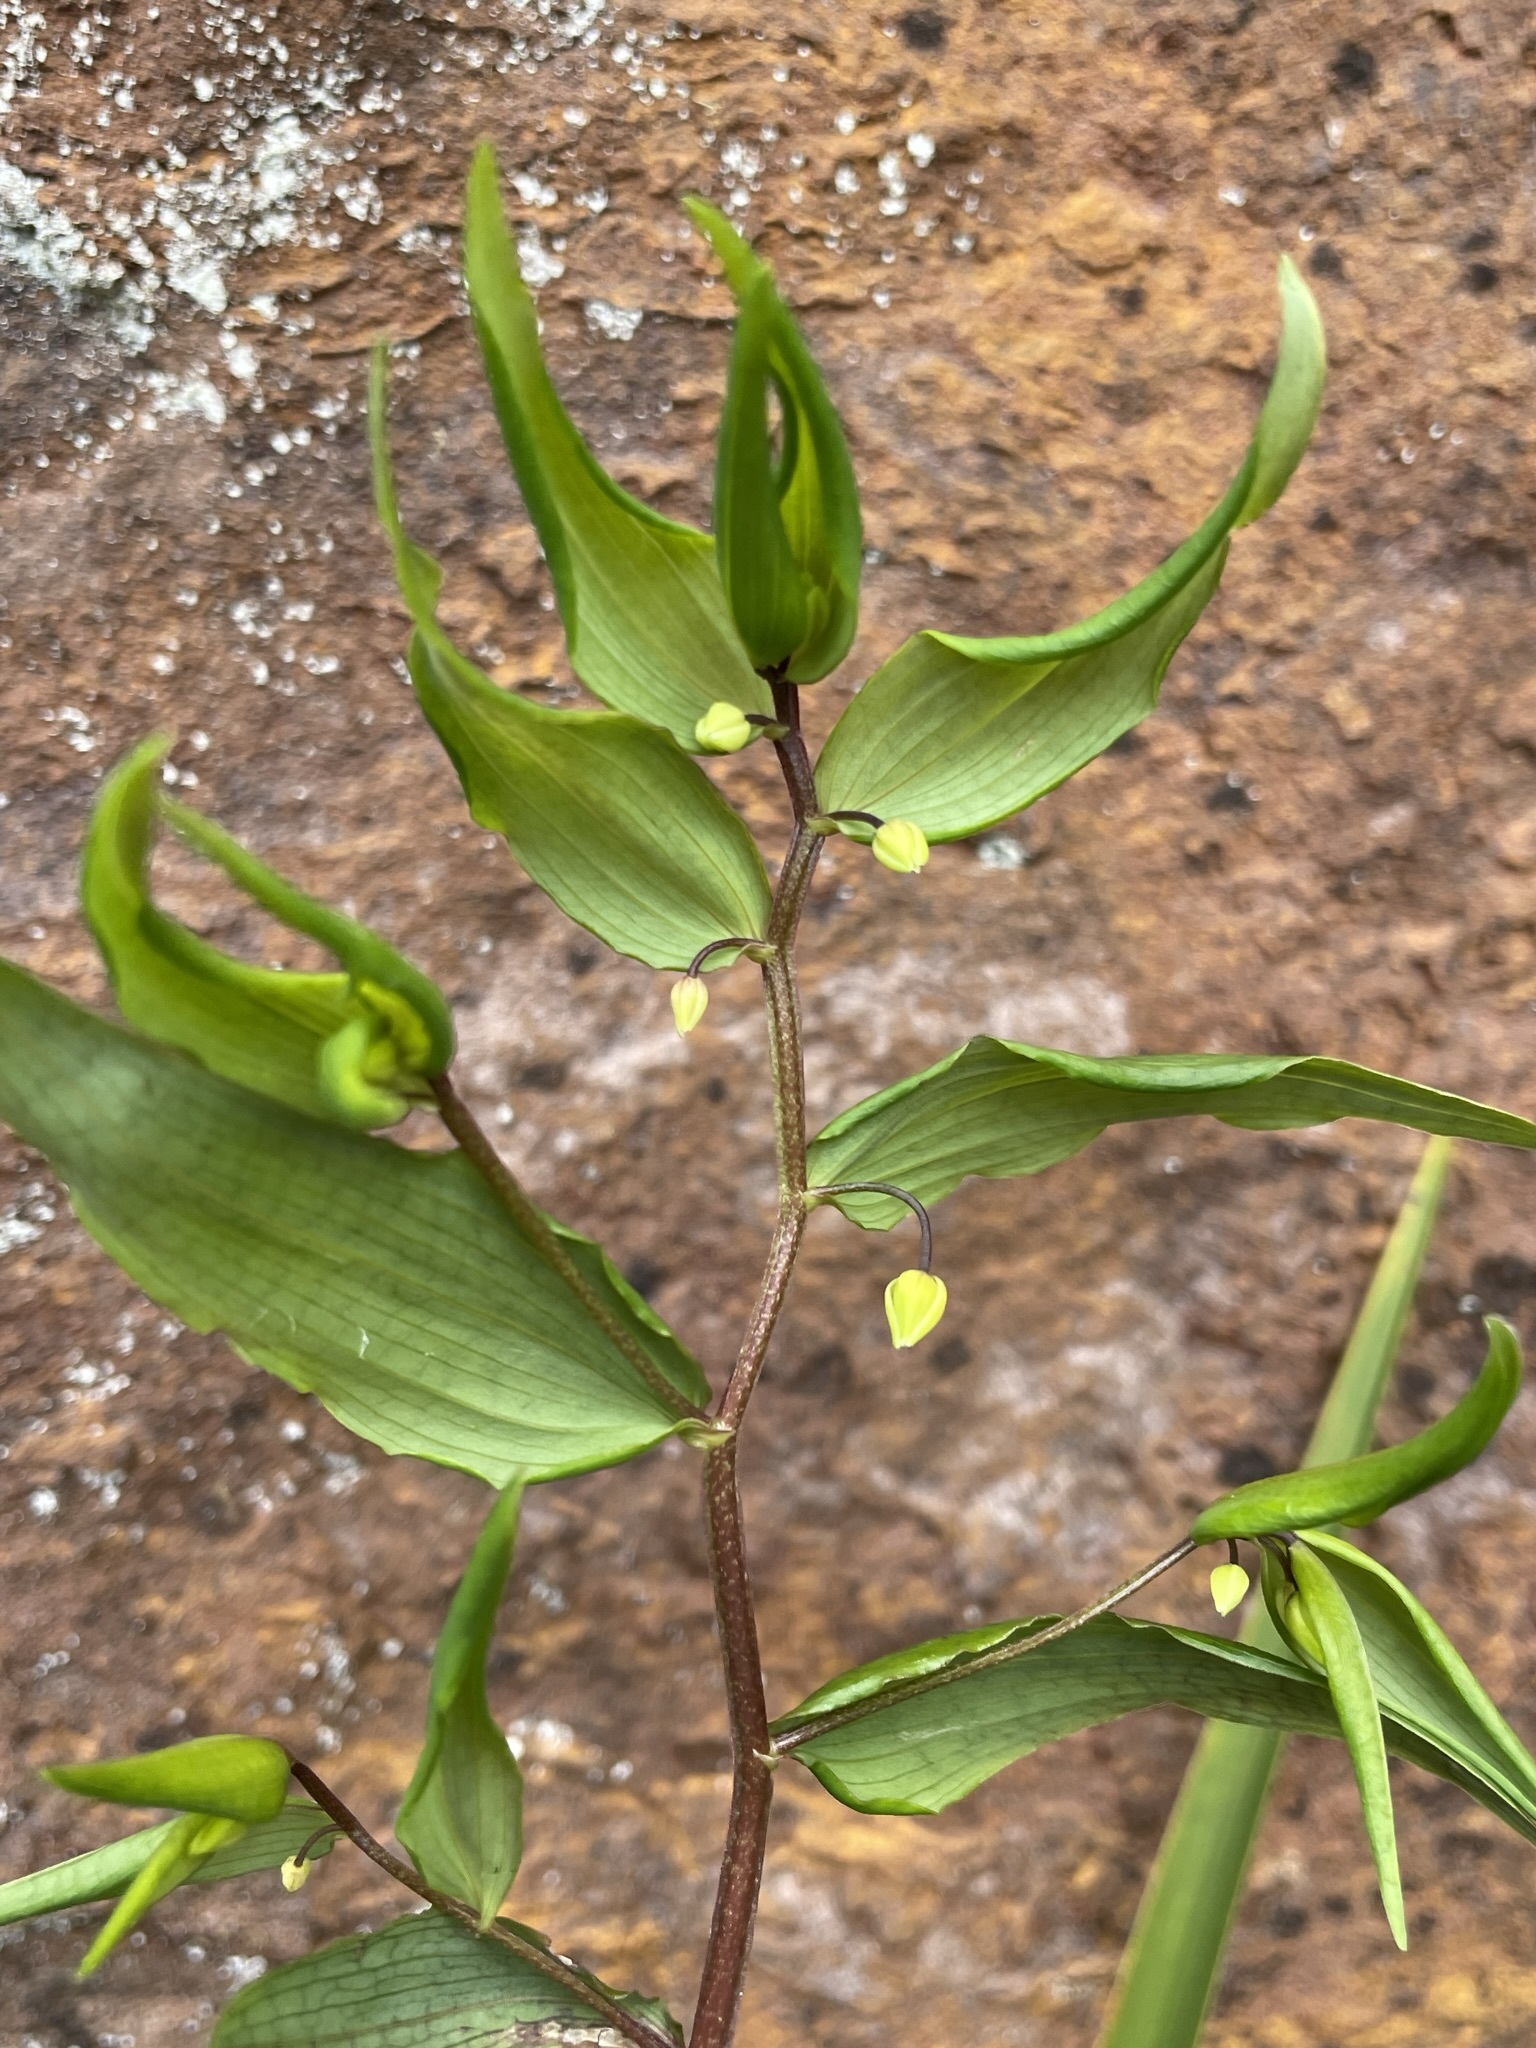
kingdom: Plantae
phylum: Tracheophyta
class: Liliopsida
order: Liliales
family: Alstroemeriaceae
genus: Drymophila
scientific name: Drymophila cyanocarpa
